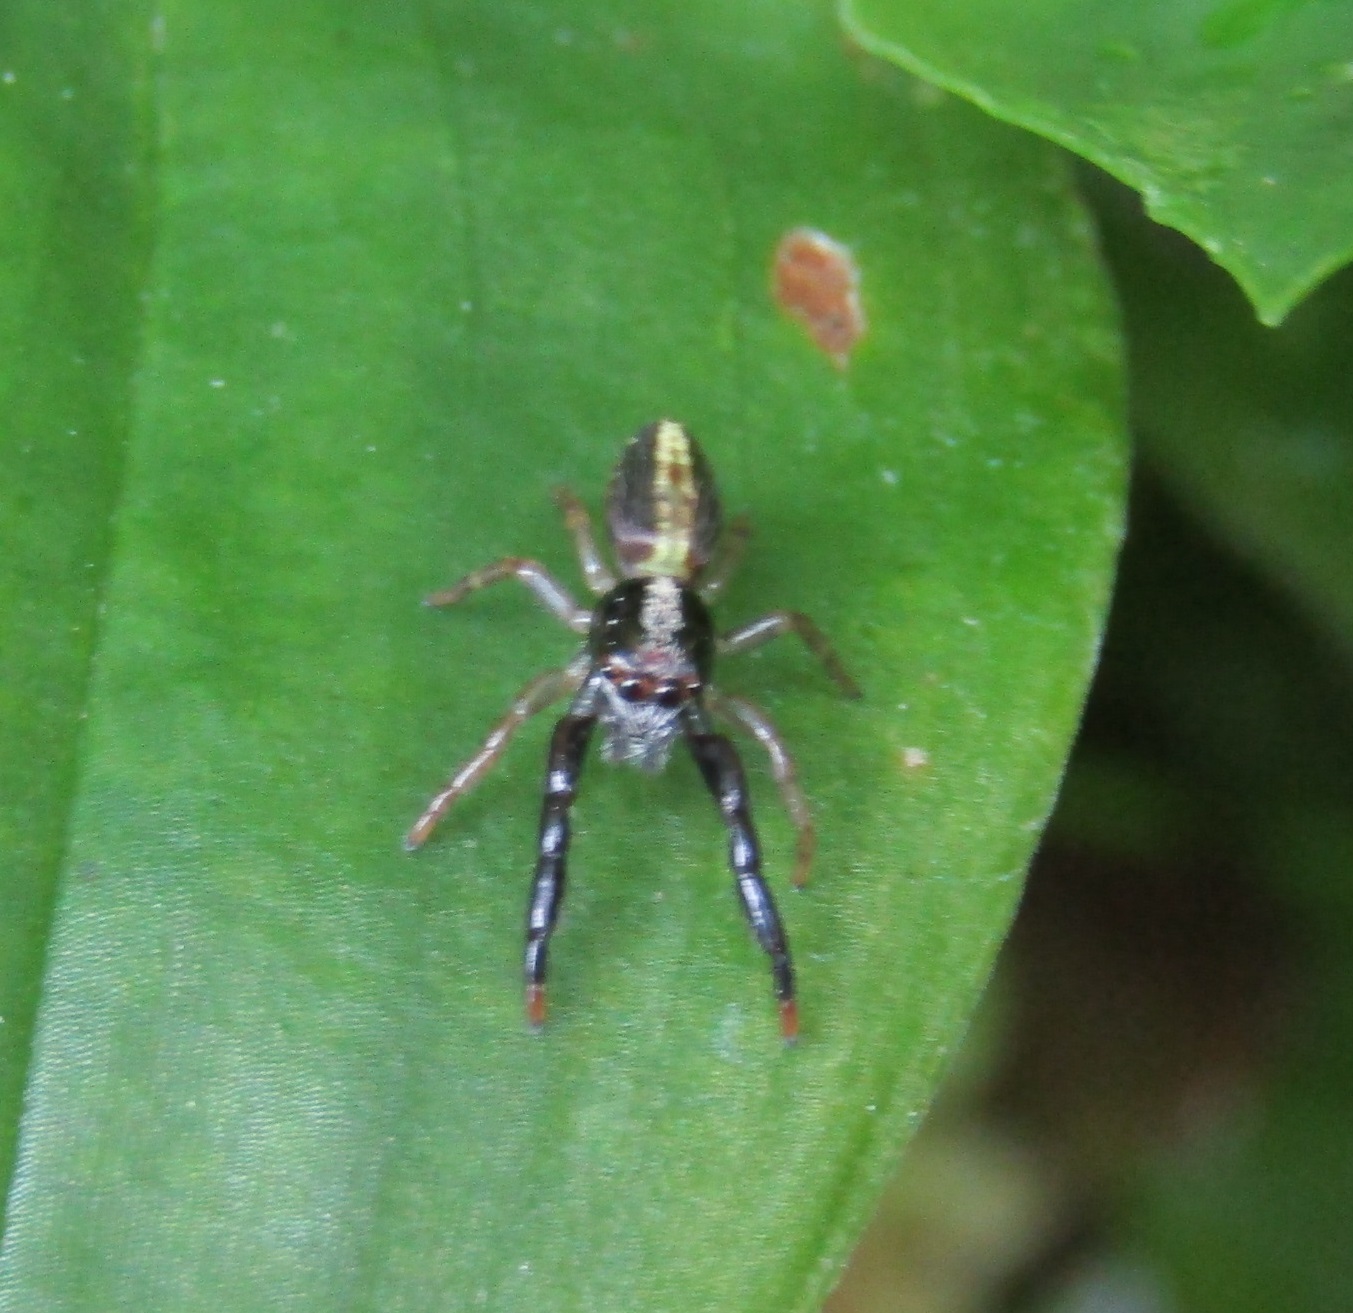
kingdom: Animalia
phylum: Arthropoda
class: Arachnida
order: Araneae
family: Salticidae
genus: Trite
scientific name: Trite planiceps
